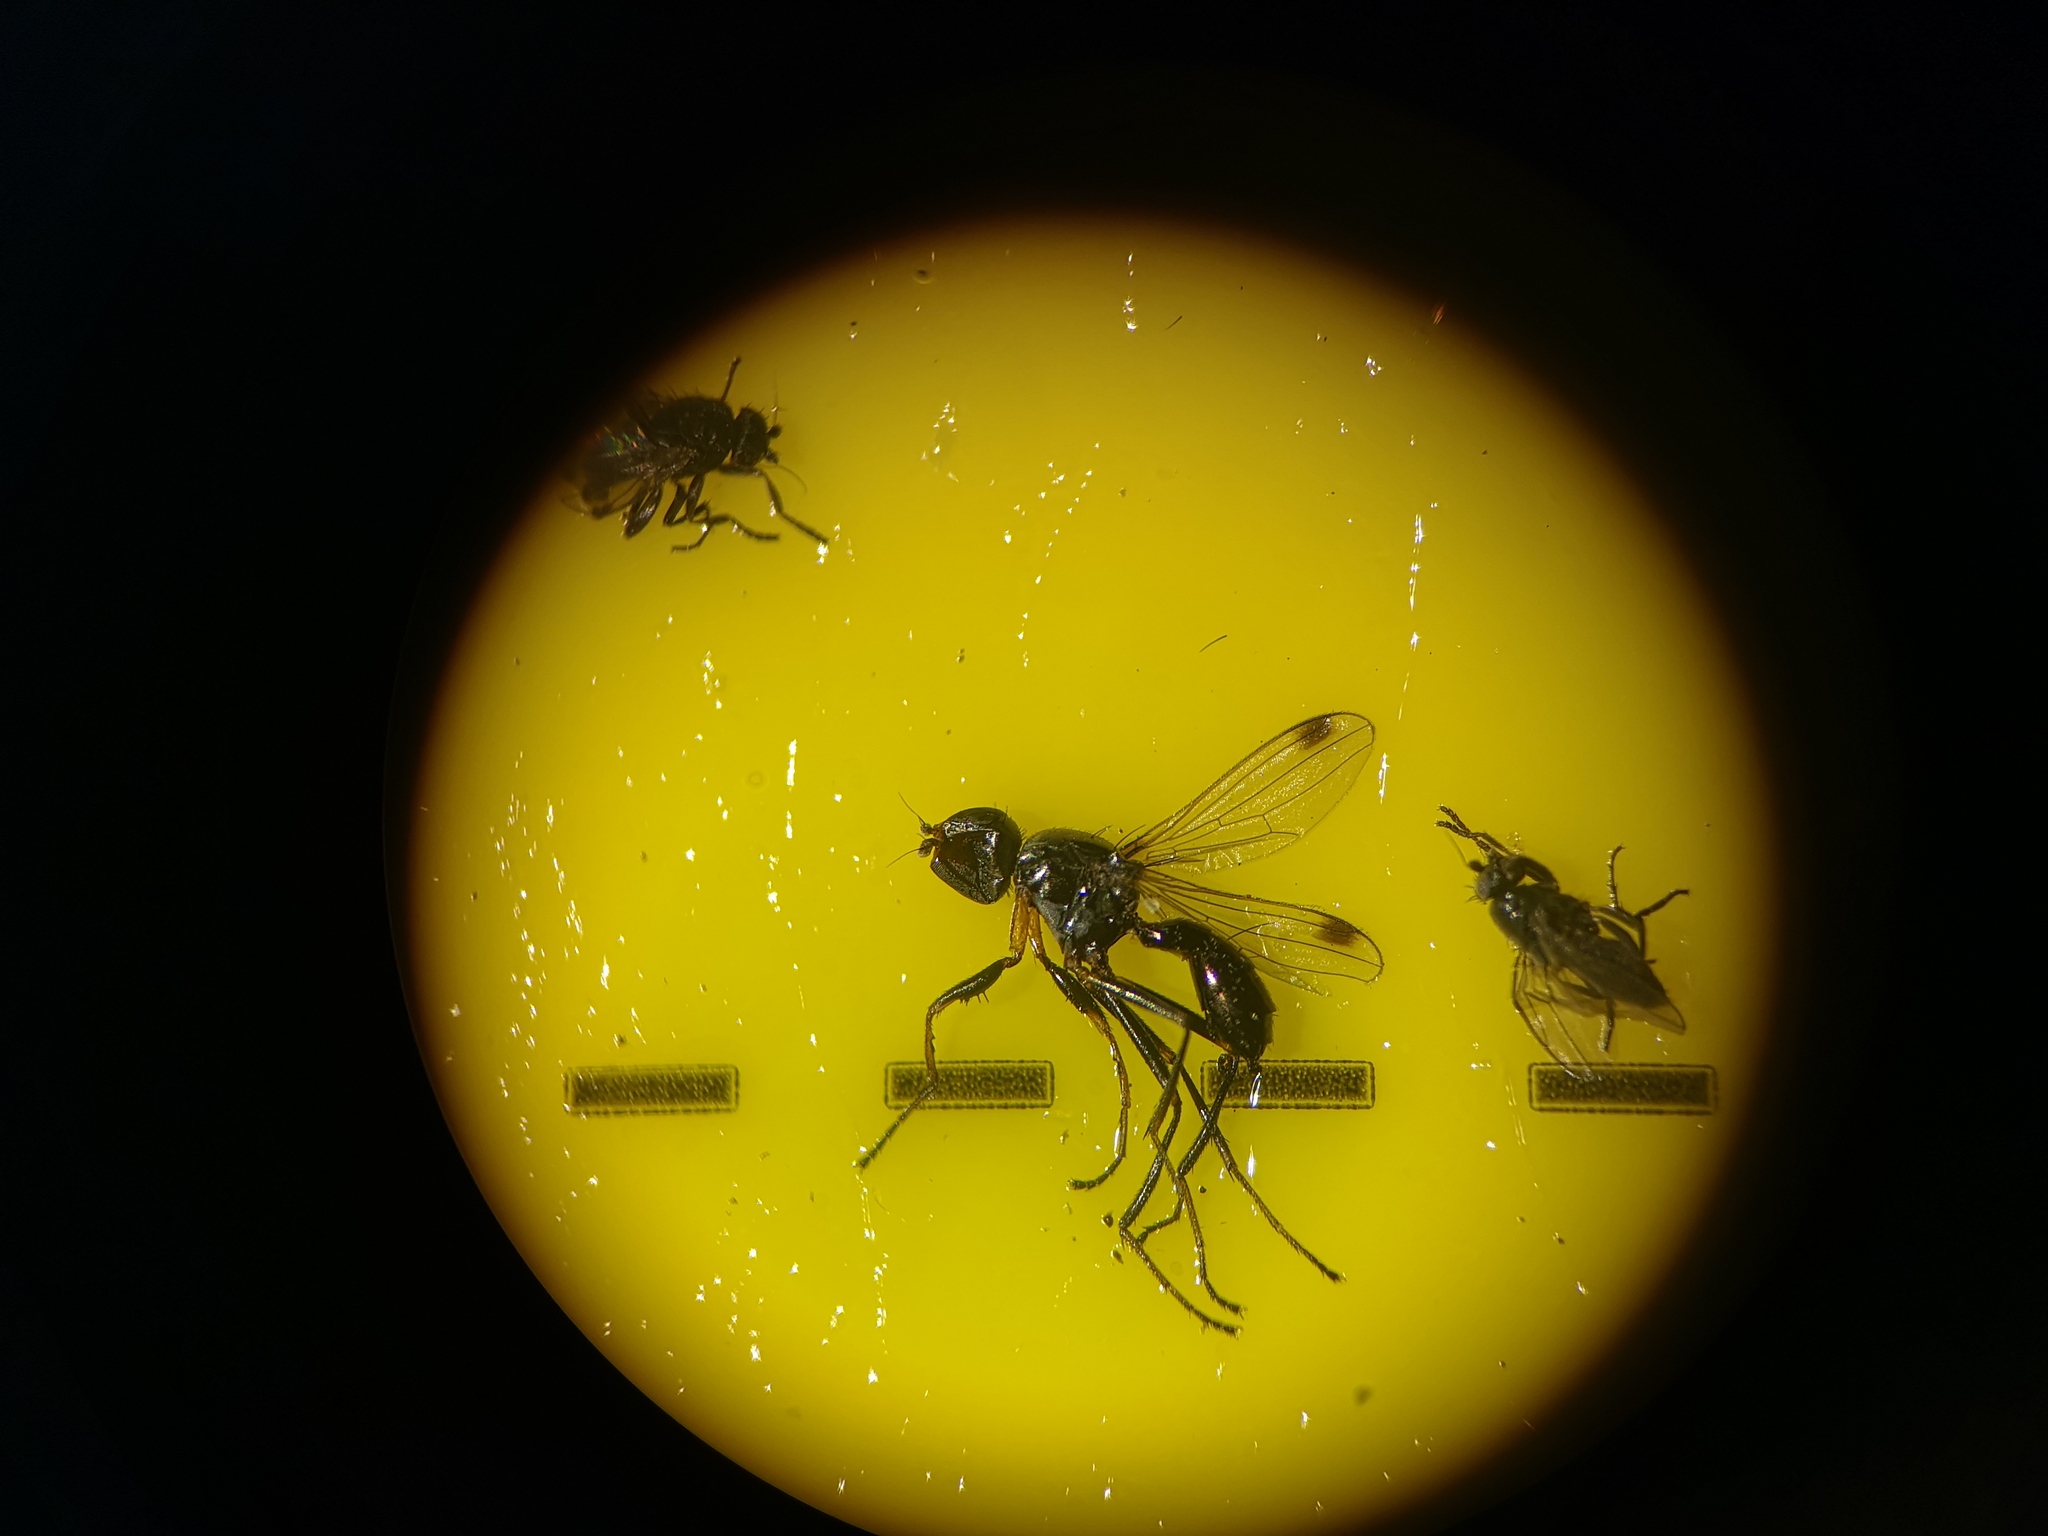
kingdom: Animalia
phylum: Arthropoda
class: Insecta
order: Diptera
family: Sepsidae
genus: Sepsis
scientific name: Sepsis cynipsea
